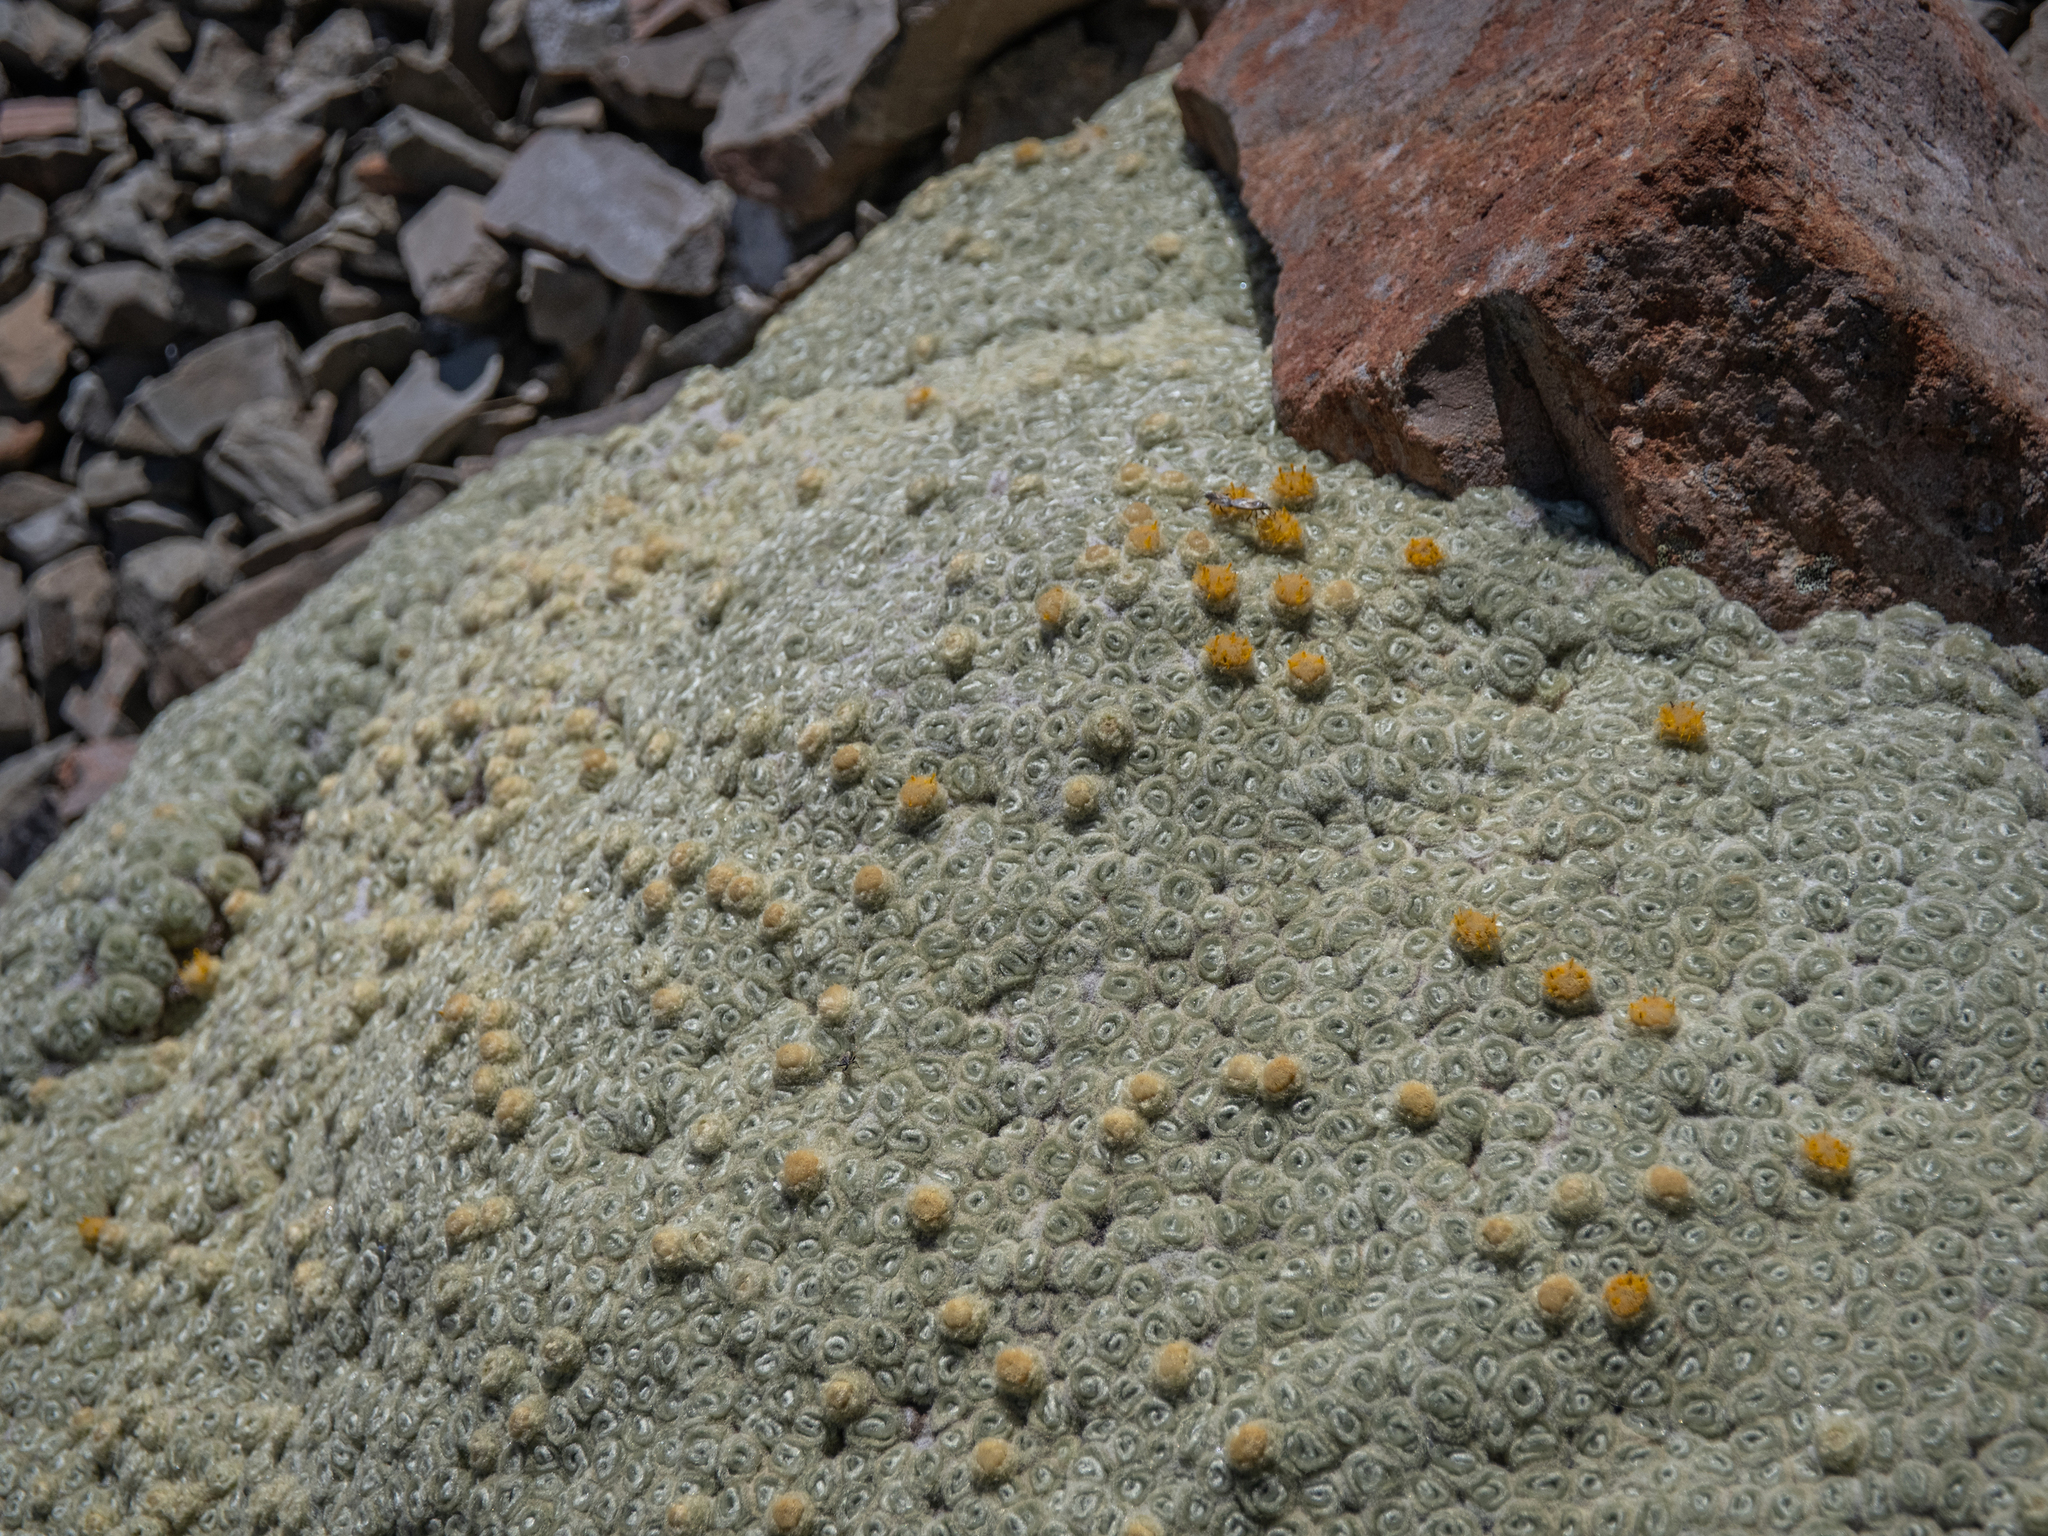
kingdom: Plantae
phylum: Tracheophyta
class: Magnoliopsida
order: Asterales
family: Asteraceae
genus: Haastia
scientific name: Haastia pulvinaris
